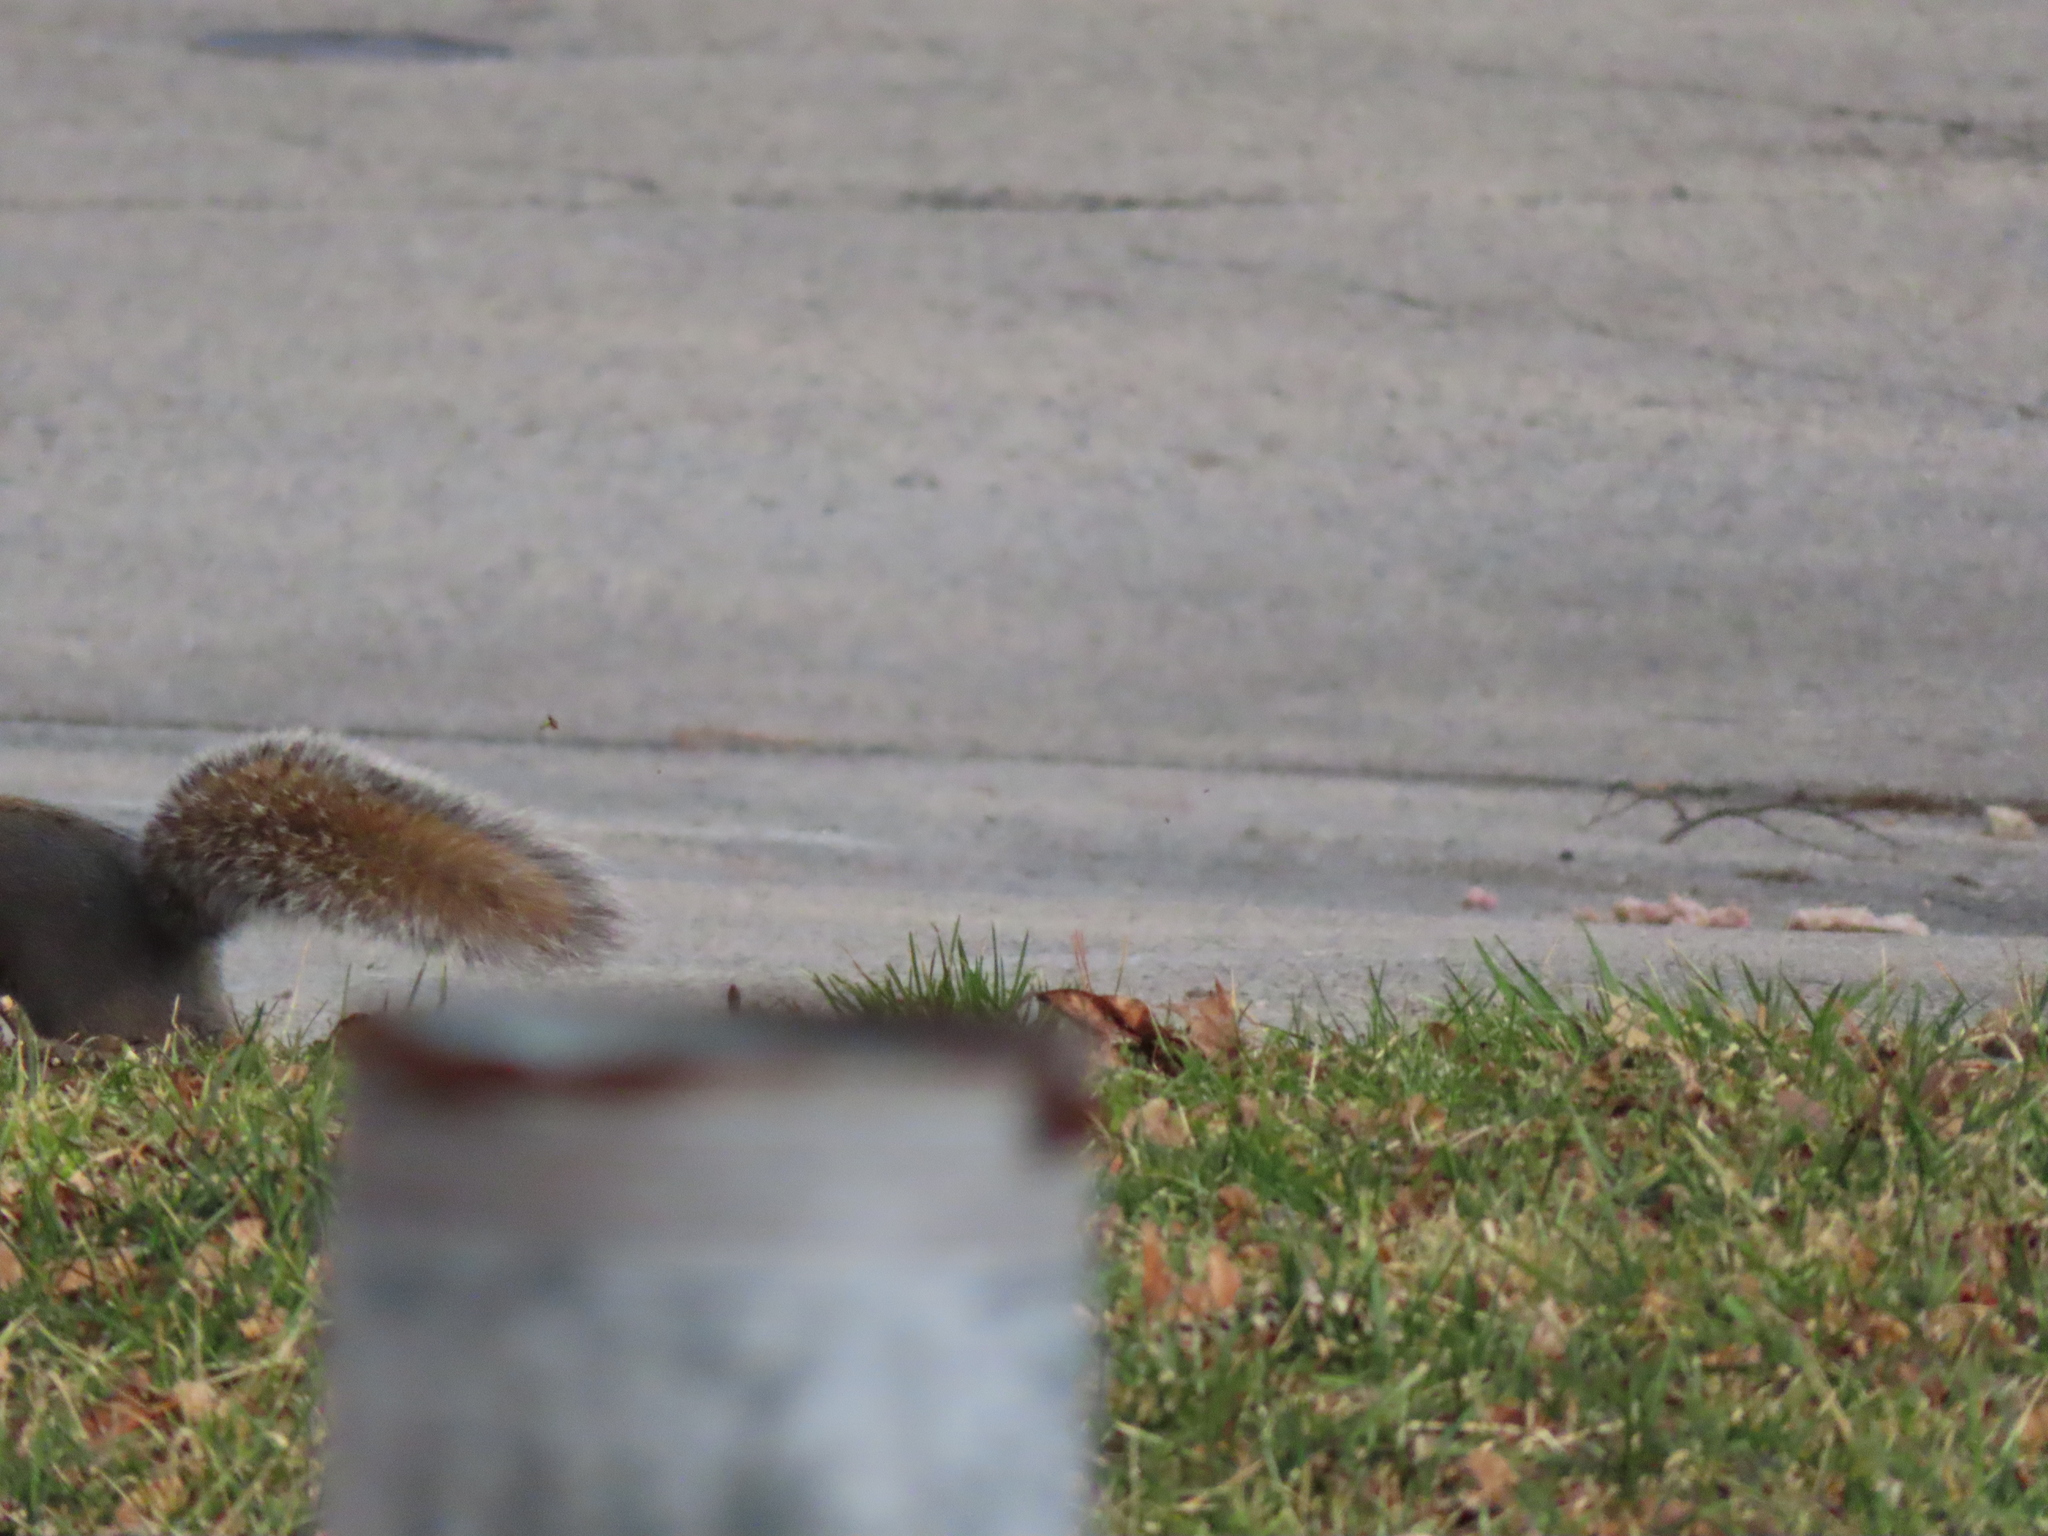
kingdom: Animalia
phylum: Chordata
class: Mammalia
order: Rodentia
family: Sciuridae
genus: Sciurus
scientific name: Sciurus carolinensis
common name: Eastern gray squirrel
